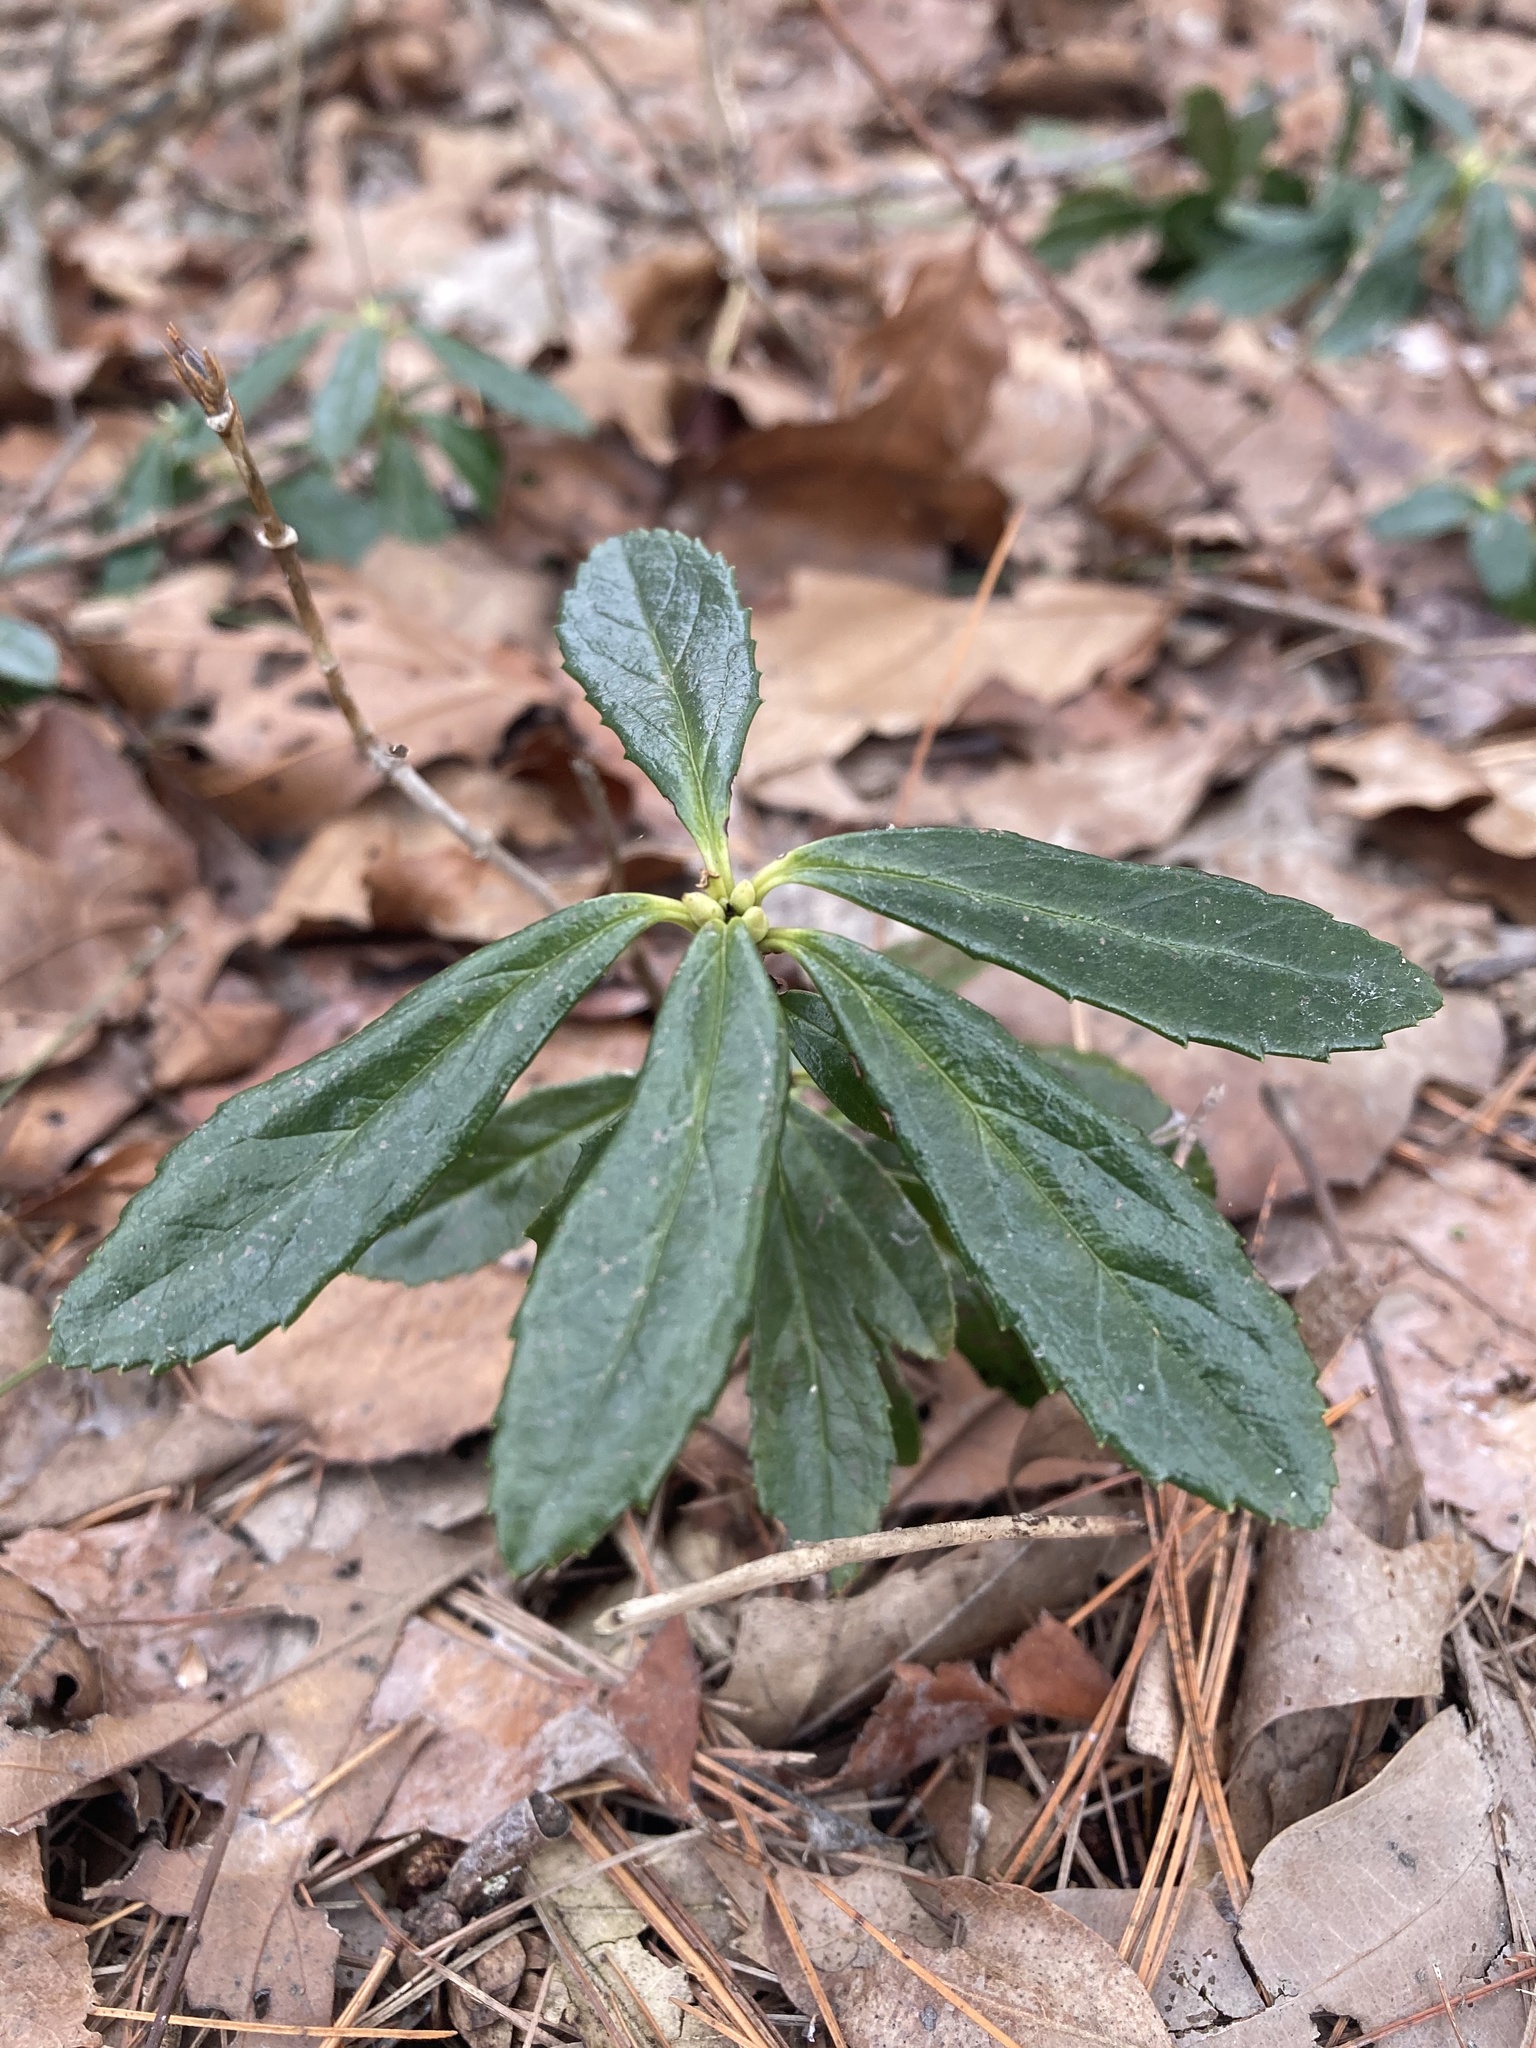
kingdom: Plantae
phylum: Tracheophyta
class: Magnoliopsida
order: Ericales
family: Ericaceae
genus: Chimaphila
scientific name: Chimaphila umbellata
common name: Pipsissewa
